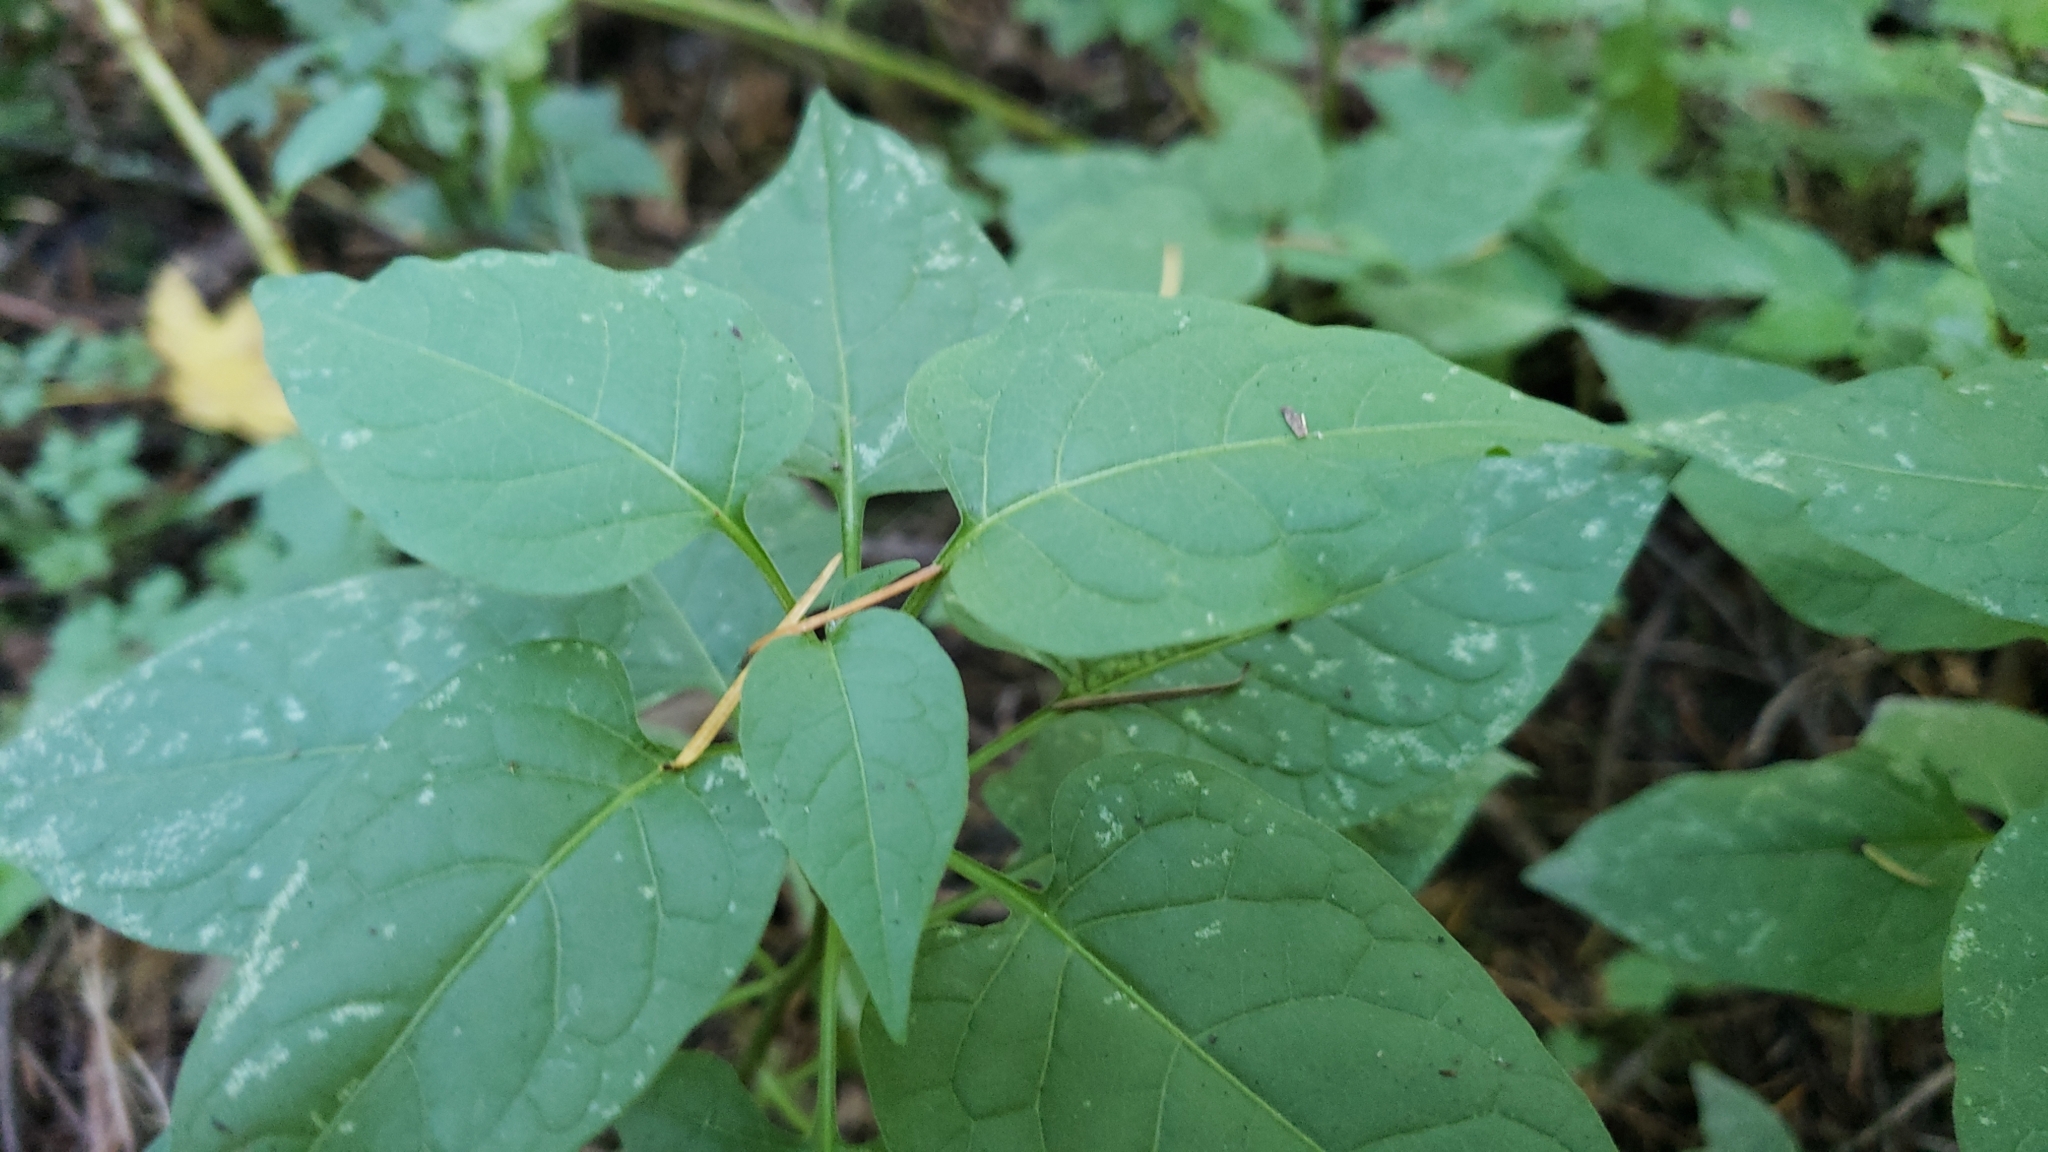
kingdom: Plantae
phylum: Tracheophyta
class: Magnoliopsida
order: Myrtales
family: Onagraceae
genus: Circaea
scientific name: Circaea alpina
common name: Alpine enchanter's-nightshade
